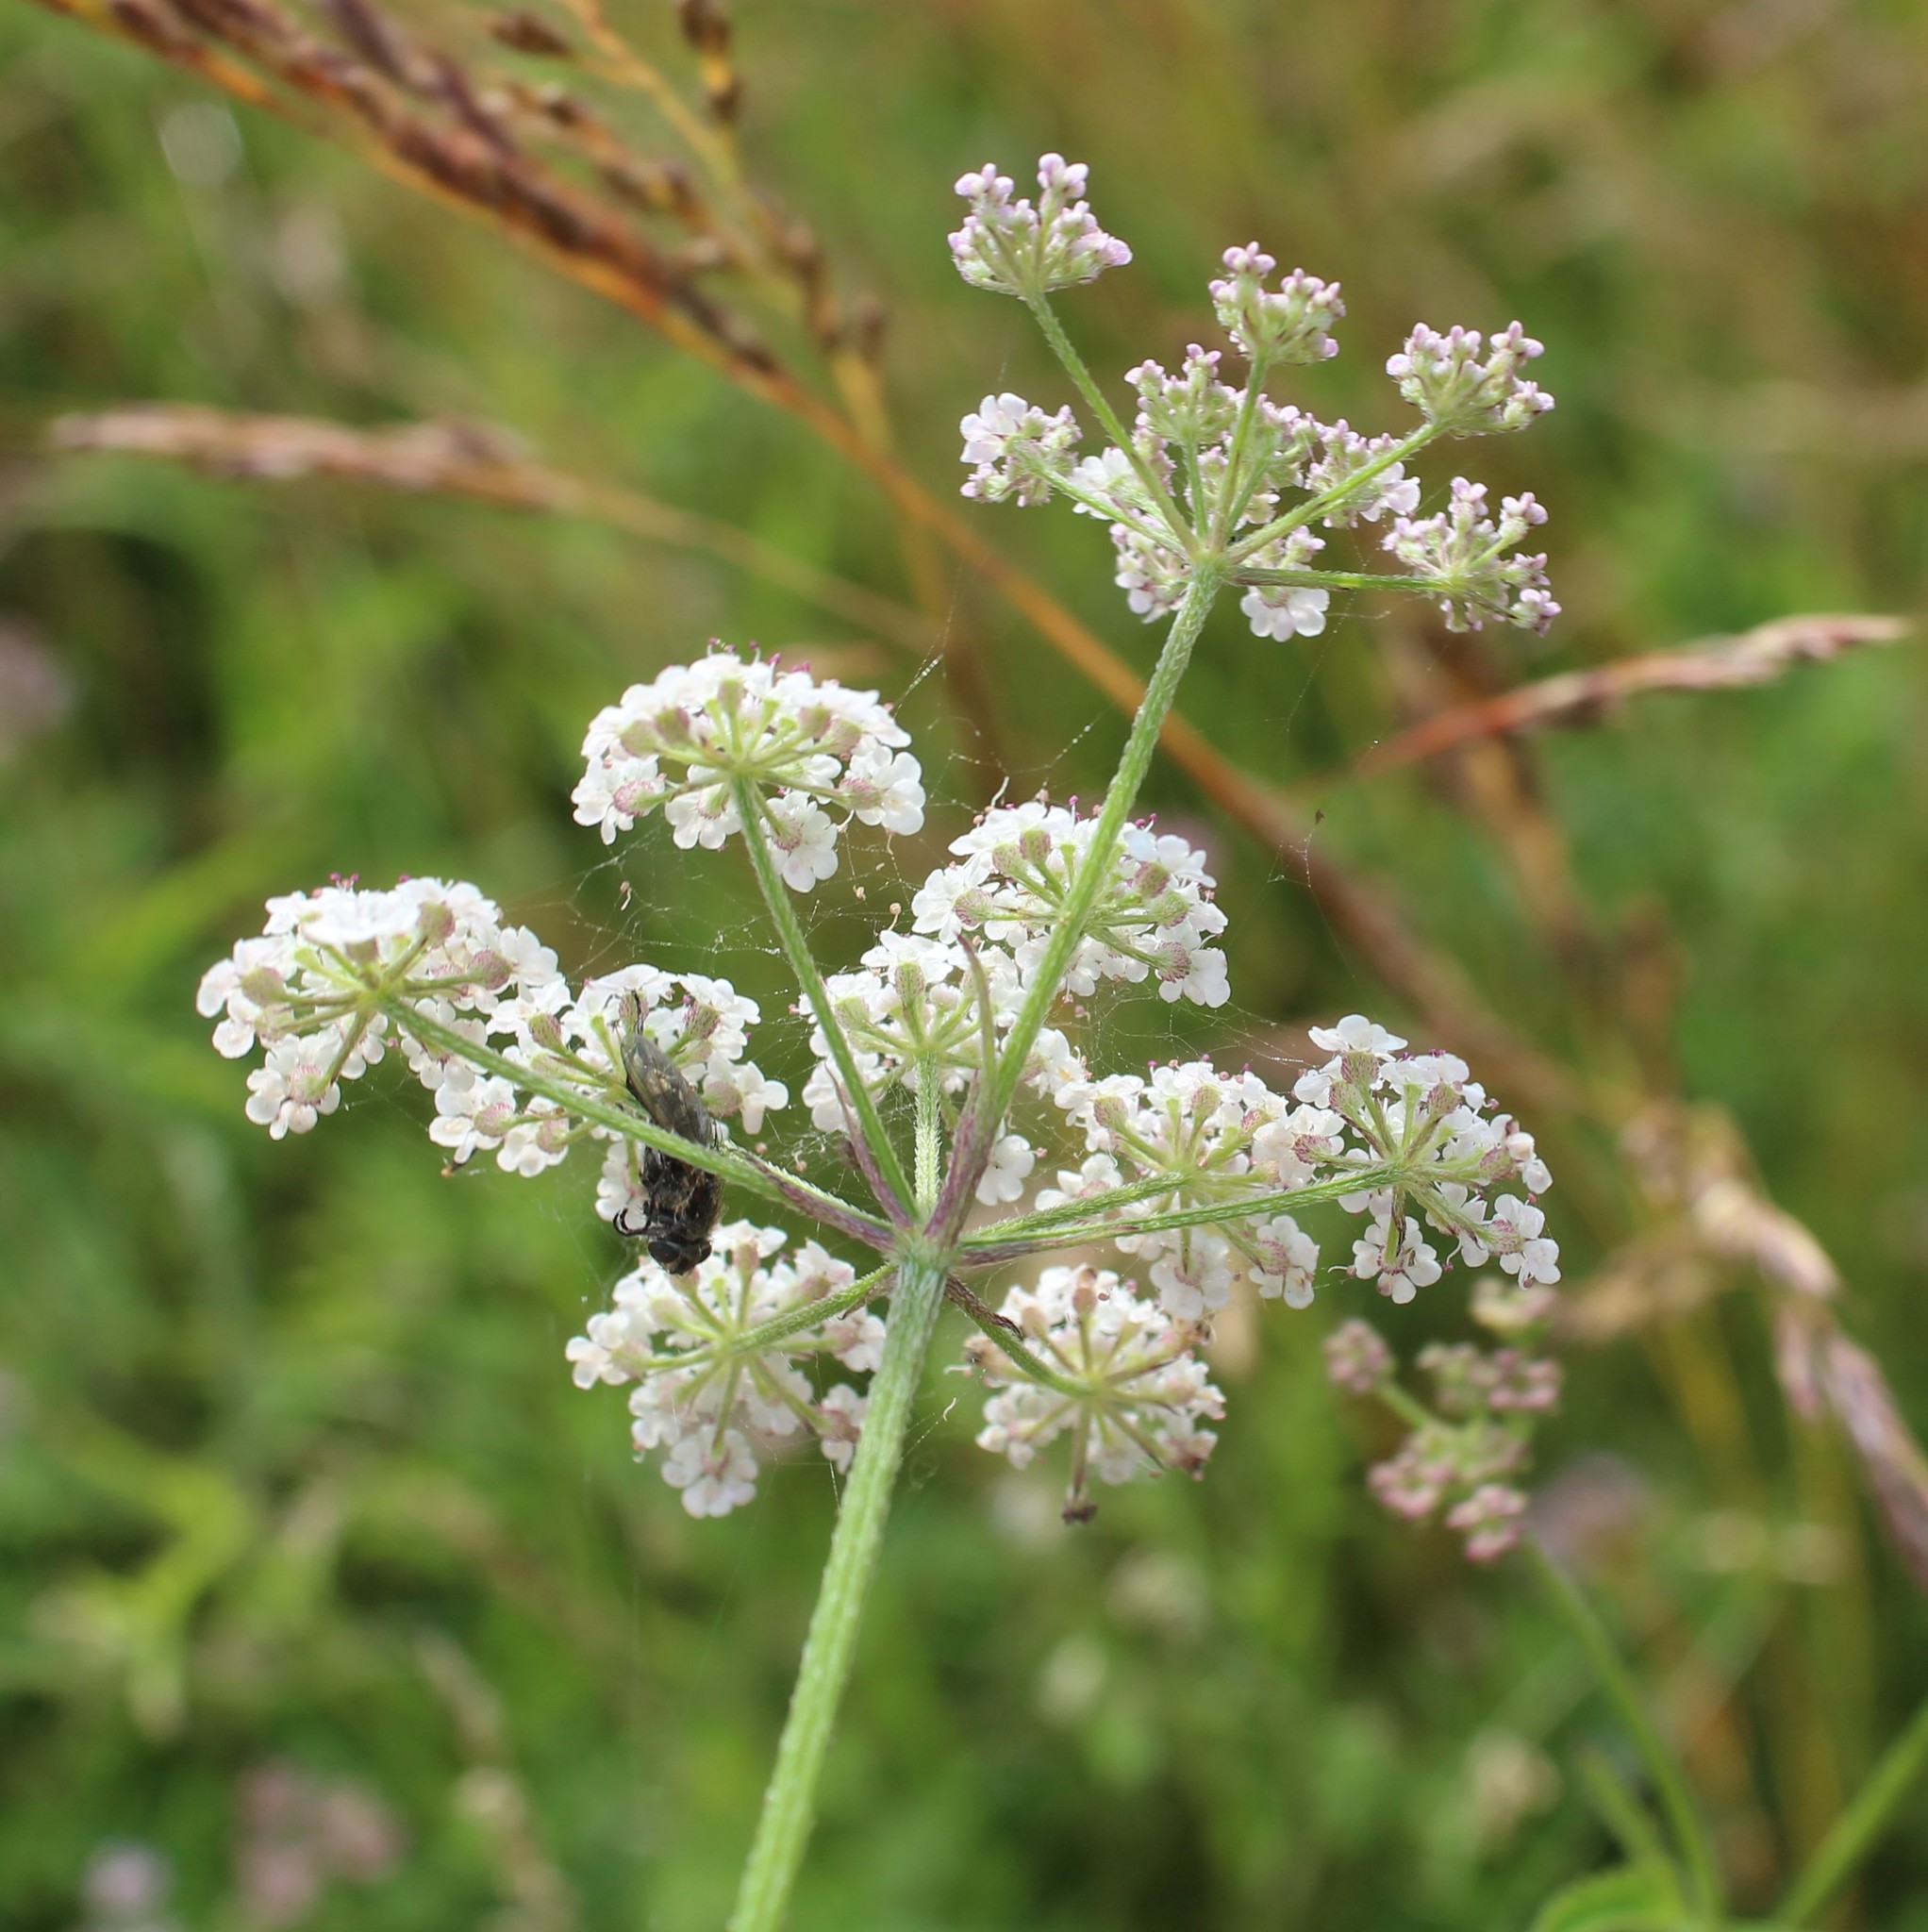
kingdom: Plantae
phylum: Tracheophyta
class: Magnoliopsida
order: Apiales
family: Apiaceae
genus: Torilis
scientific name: Torilis japonica
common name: Upright hedge-parsley
